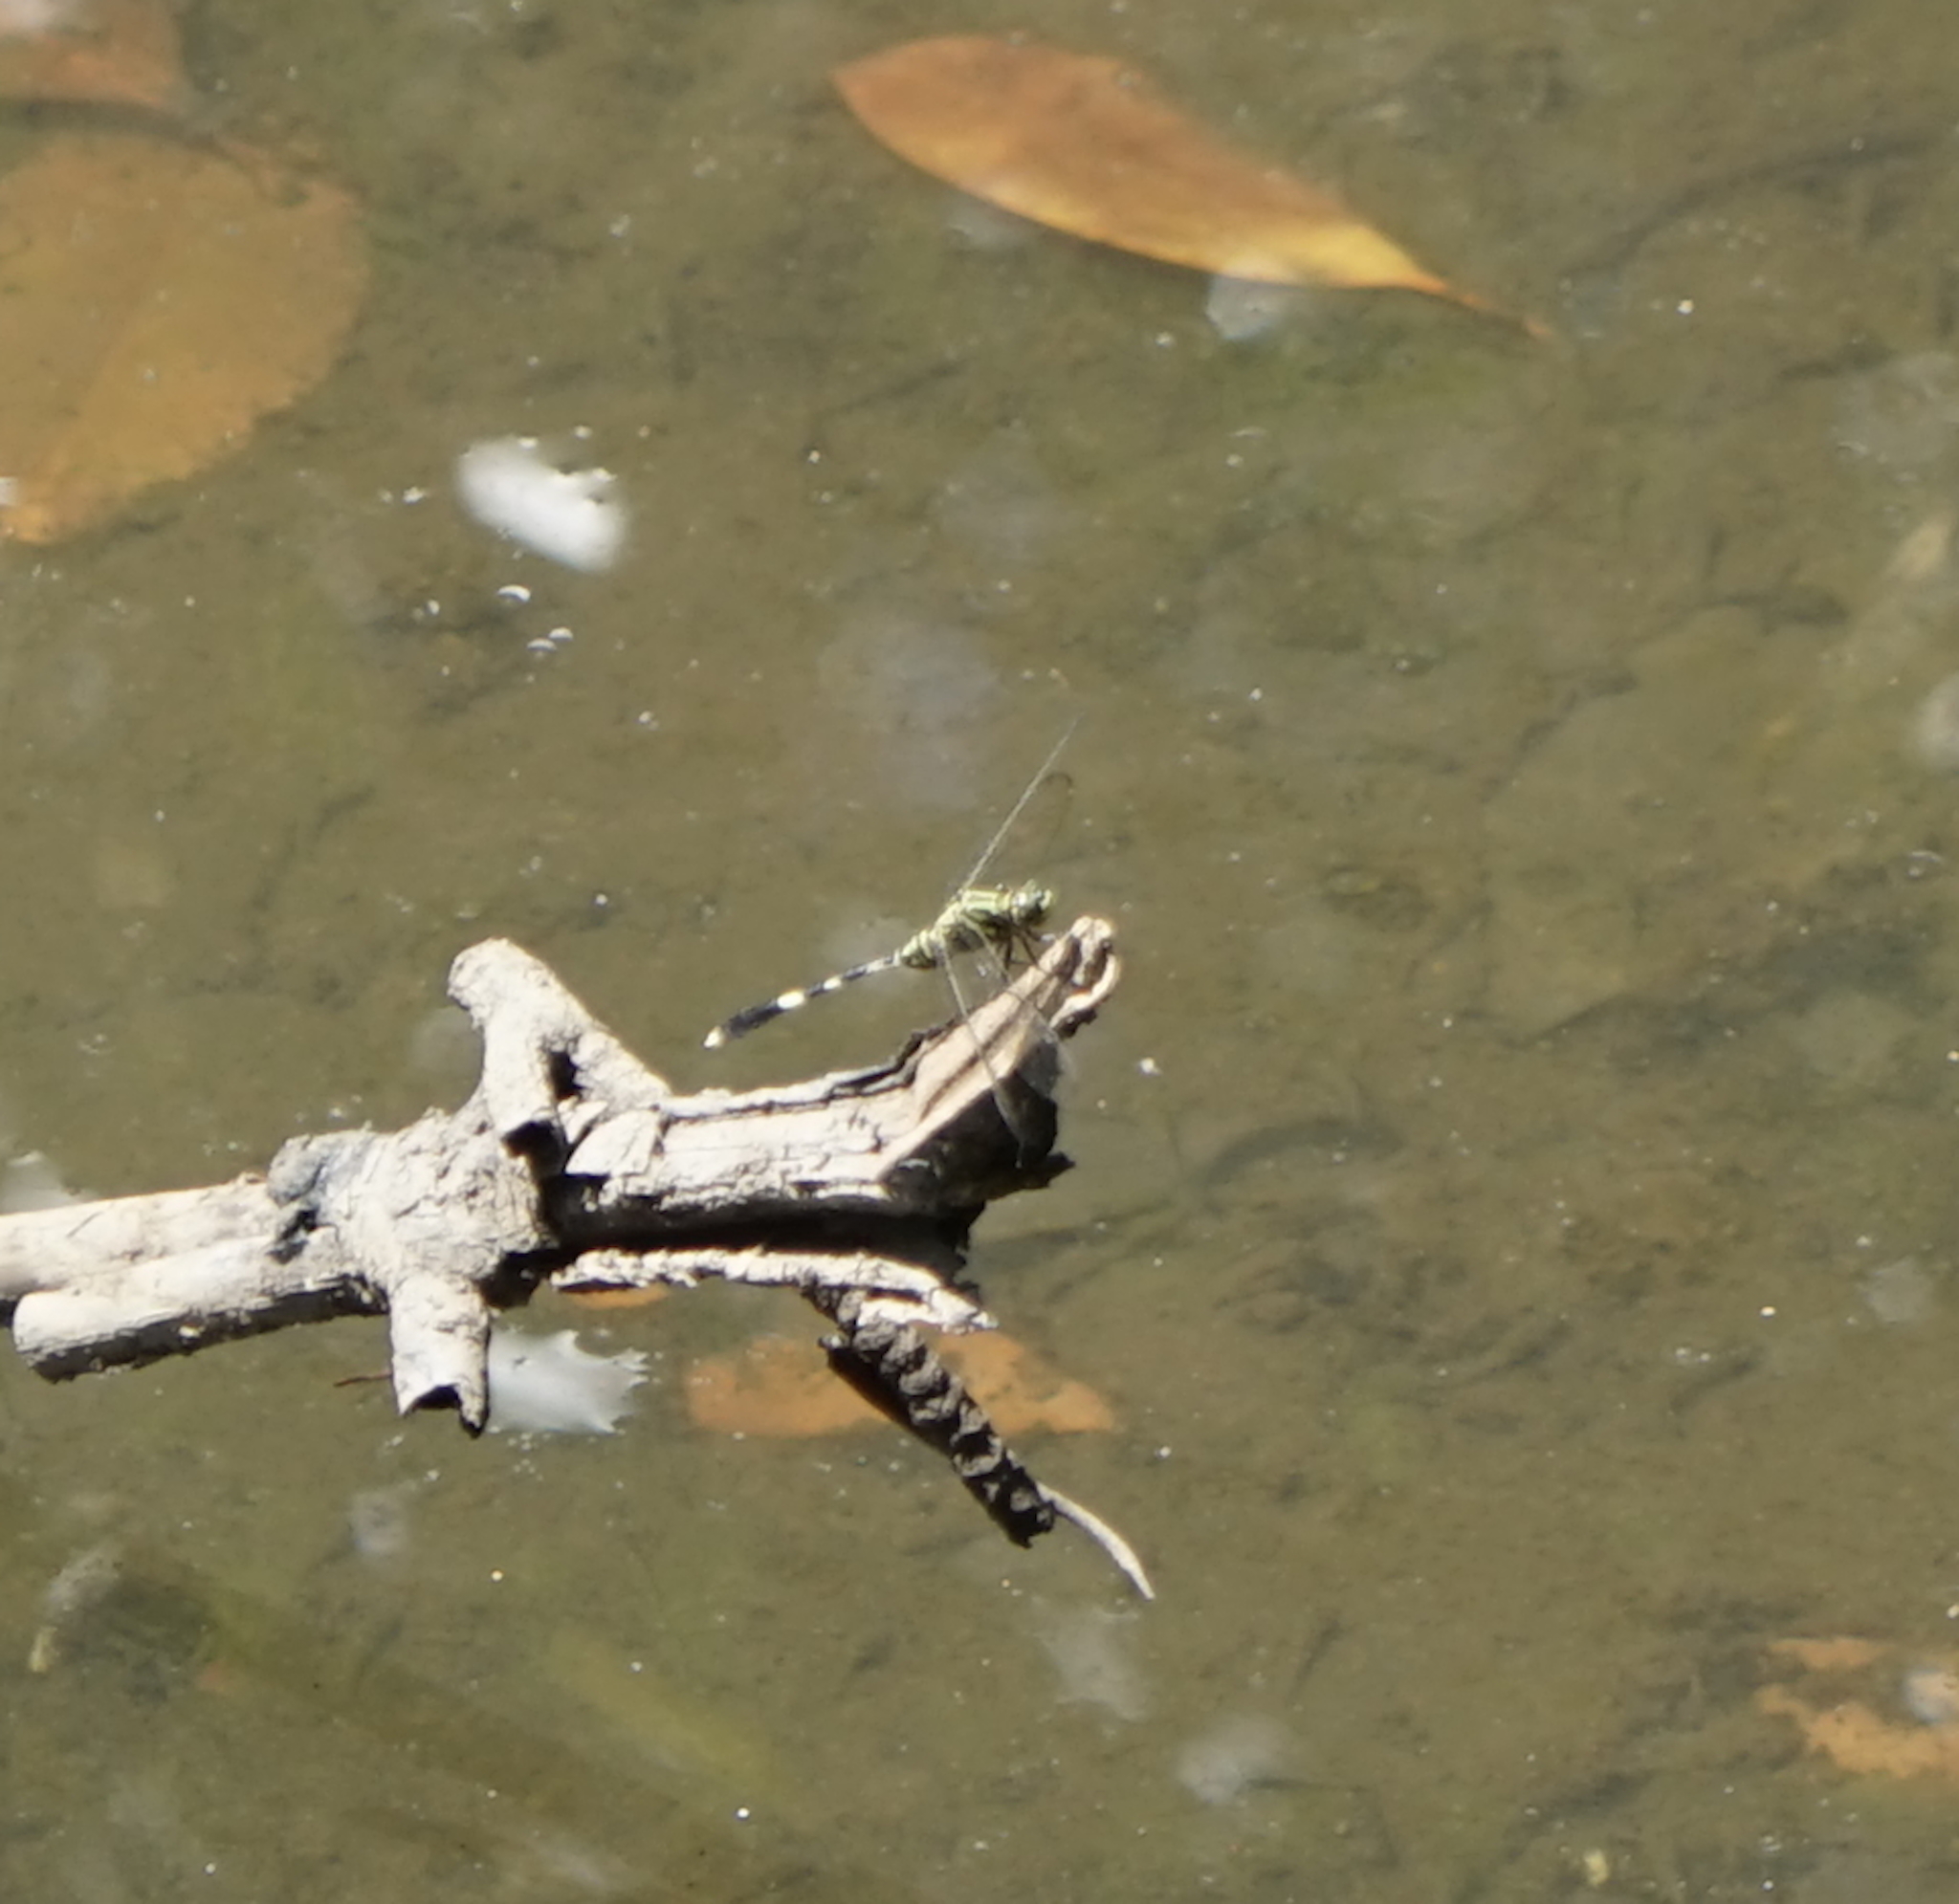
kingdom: Animalia
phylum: Arthropoda
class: Insecta
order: Odonata
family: Libellulidae
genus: Orthetrum
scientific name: Orthetrum sabina
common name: Slender skimmer
